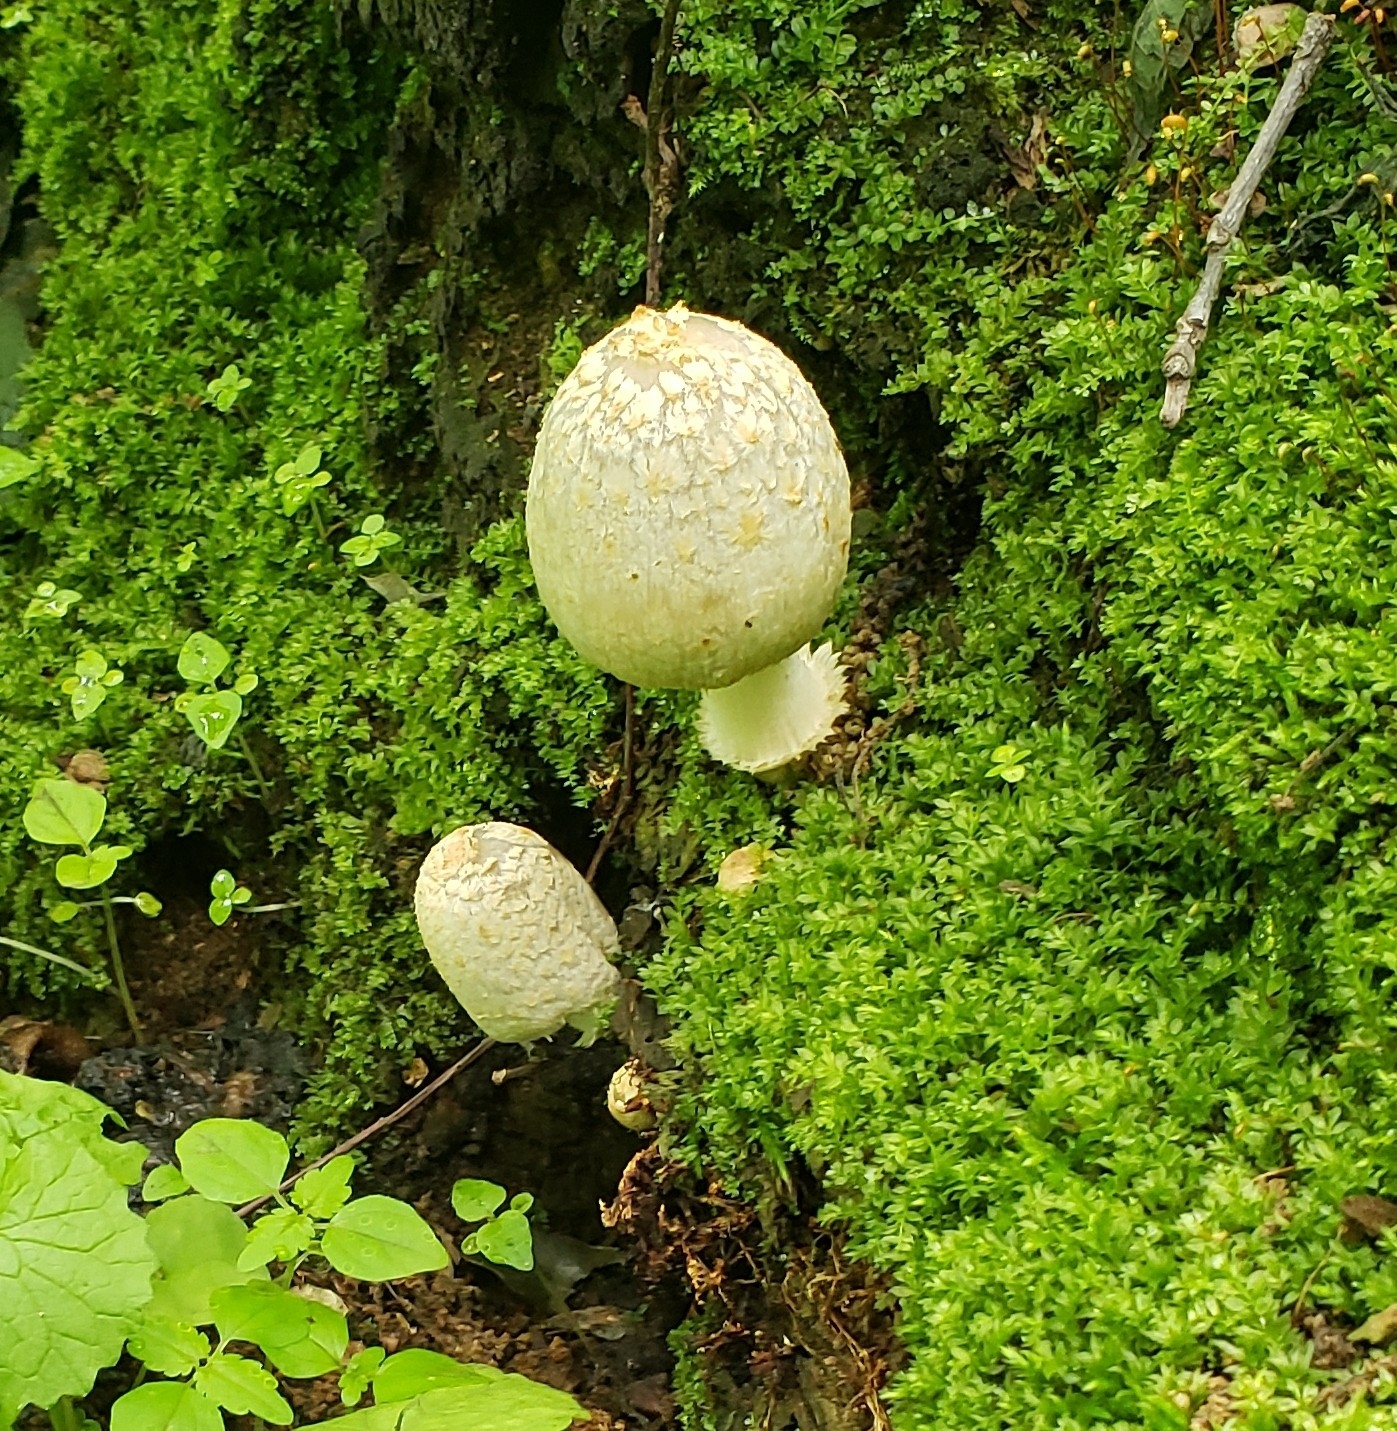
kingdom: Fungi
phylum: Basidiomycota
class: Agaricomycetes
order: Agaricales
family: Psathyrellaceae
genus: Coprinopsis
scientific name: Coprinopsis variegata
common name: Scaly ink cap
